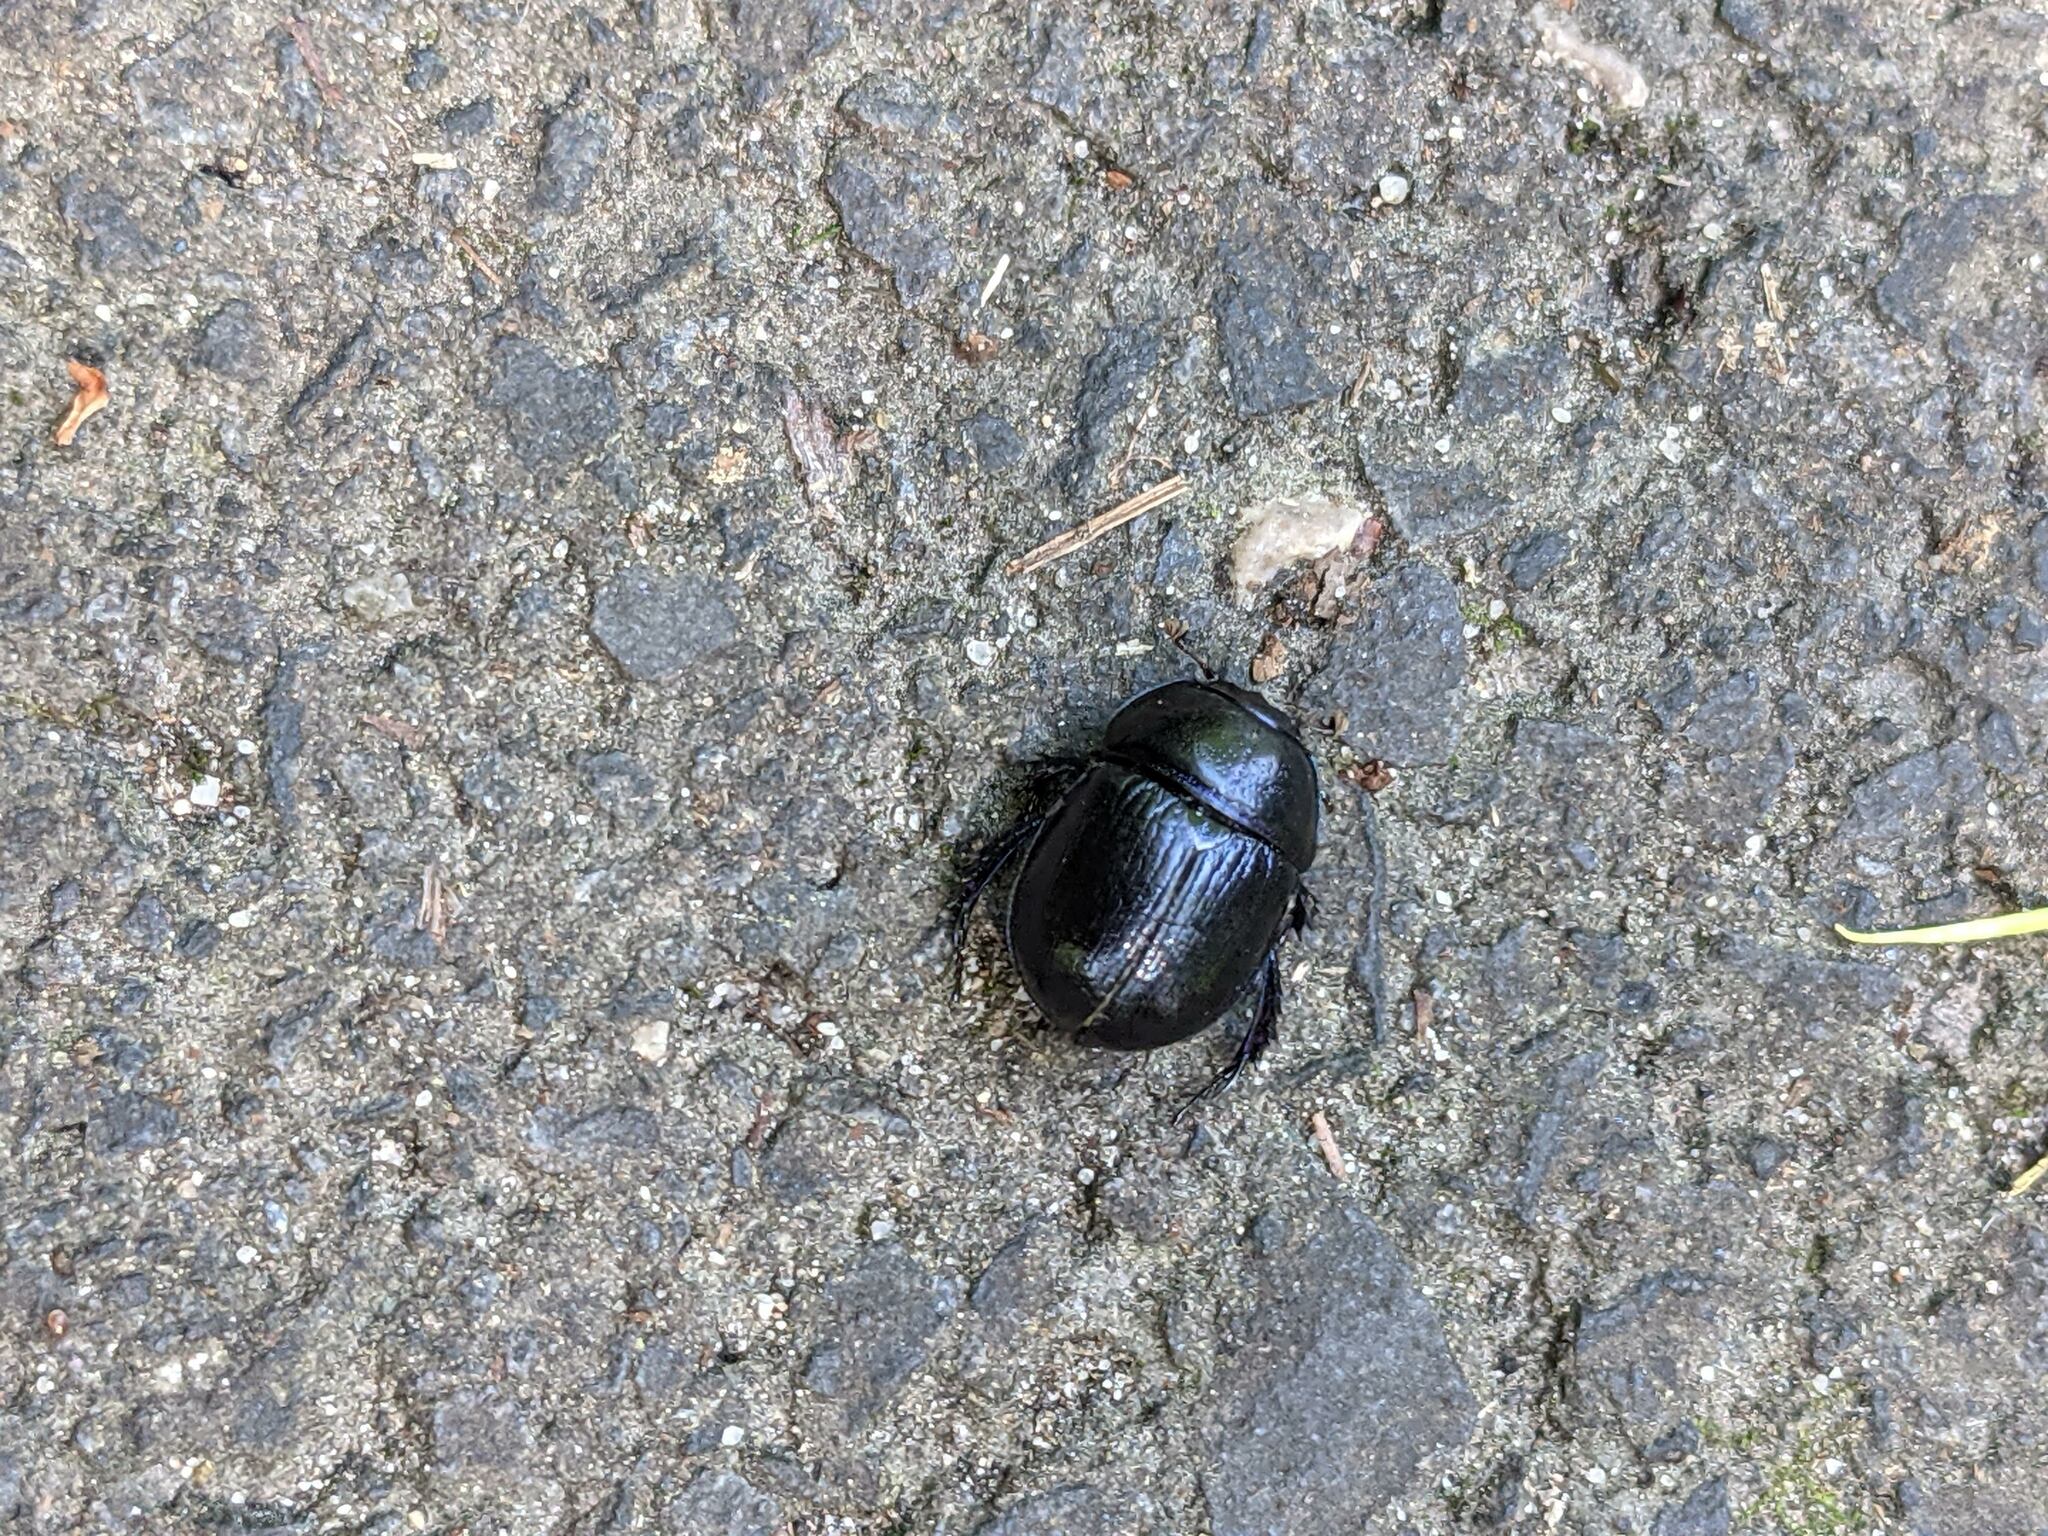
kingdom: Animalia
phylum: Arthropoda
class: Insecta
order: Coleoptera
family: Geotrupidae
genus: Anoplotrupes
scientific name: Anoplotrupes stercorosus
